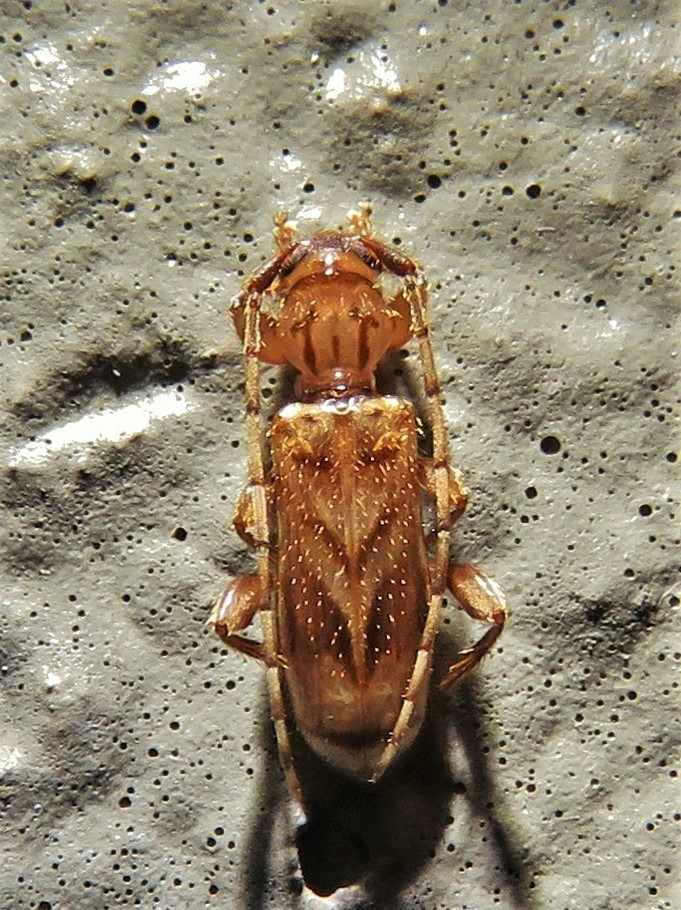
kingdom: Animalia
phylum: Arthropoda
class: Insecta
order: Coleoptera
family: Cerambycidae
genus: Obrium
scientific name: Obrium maculatum
